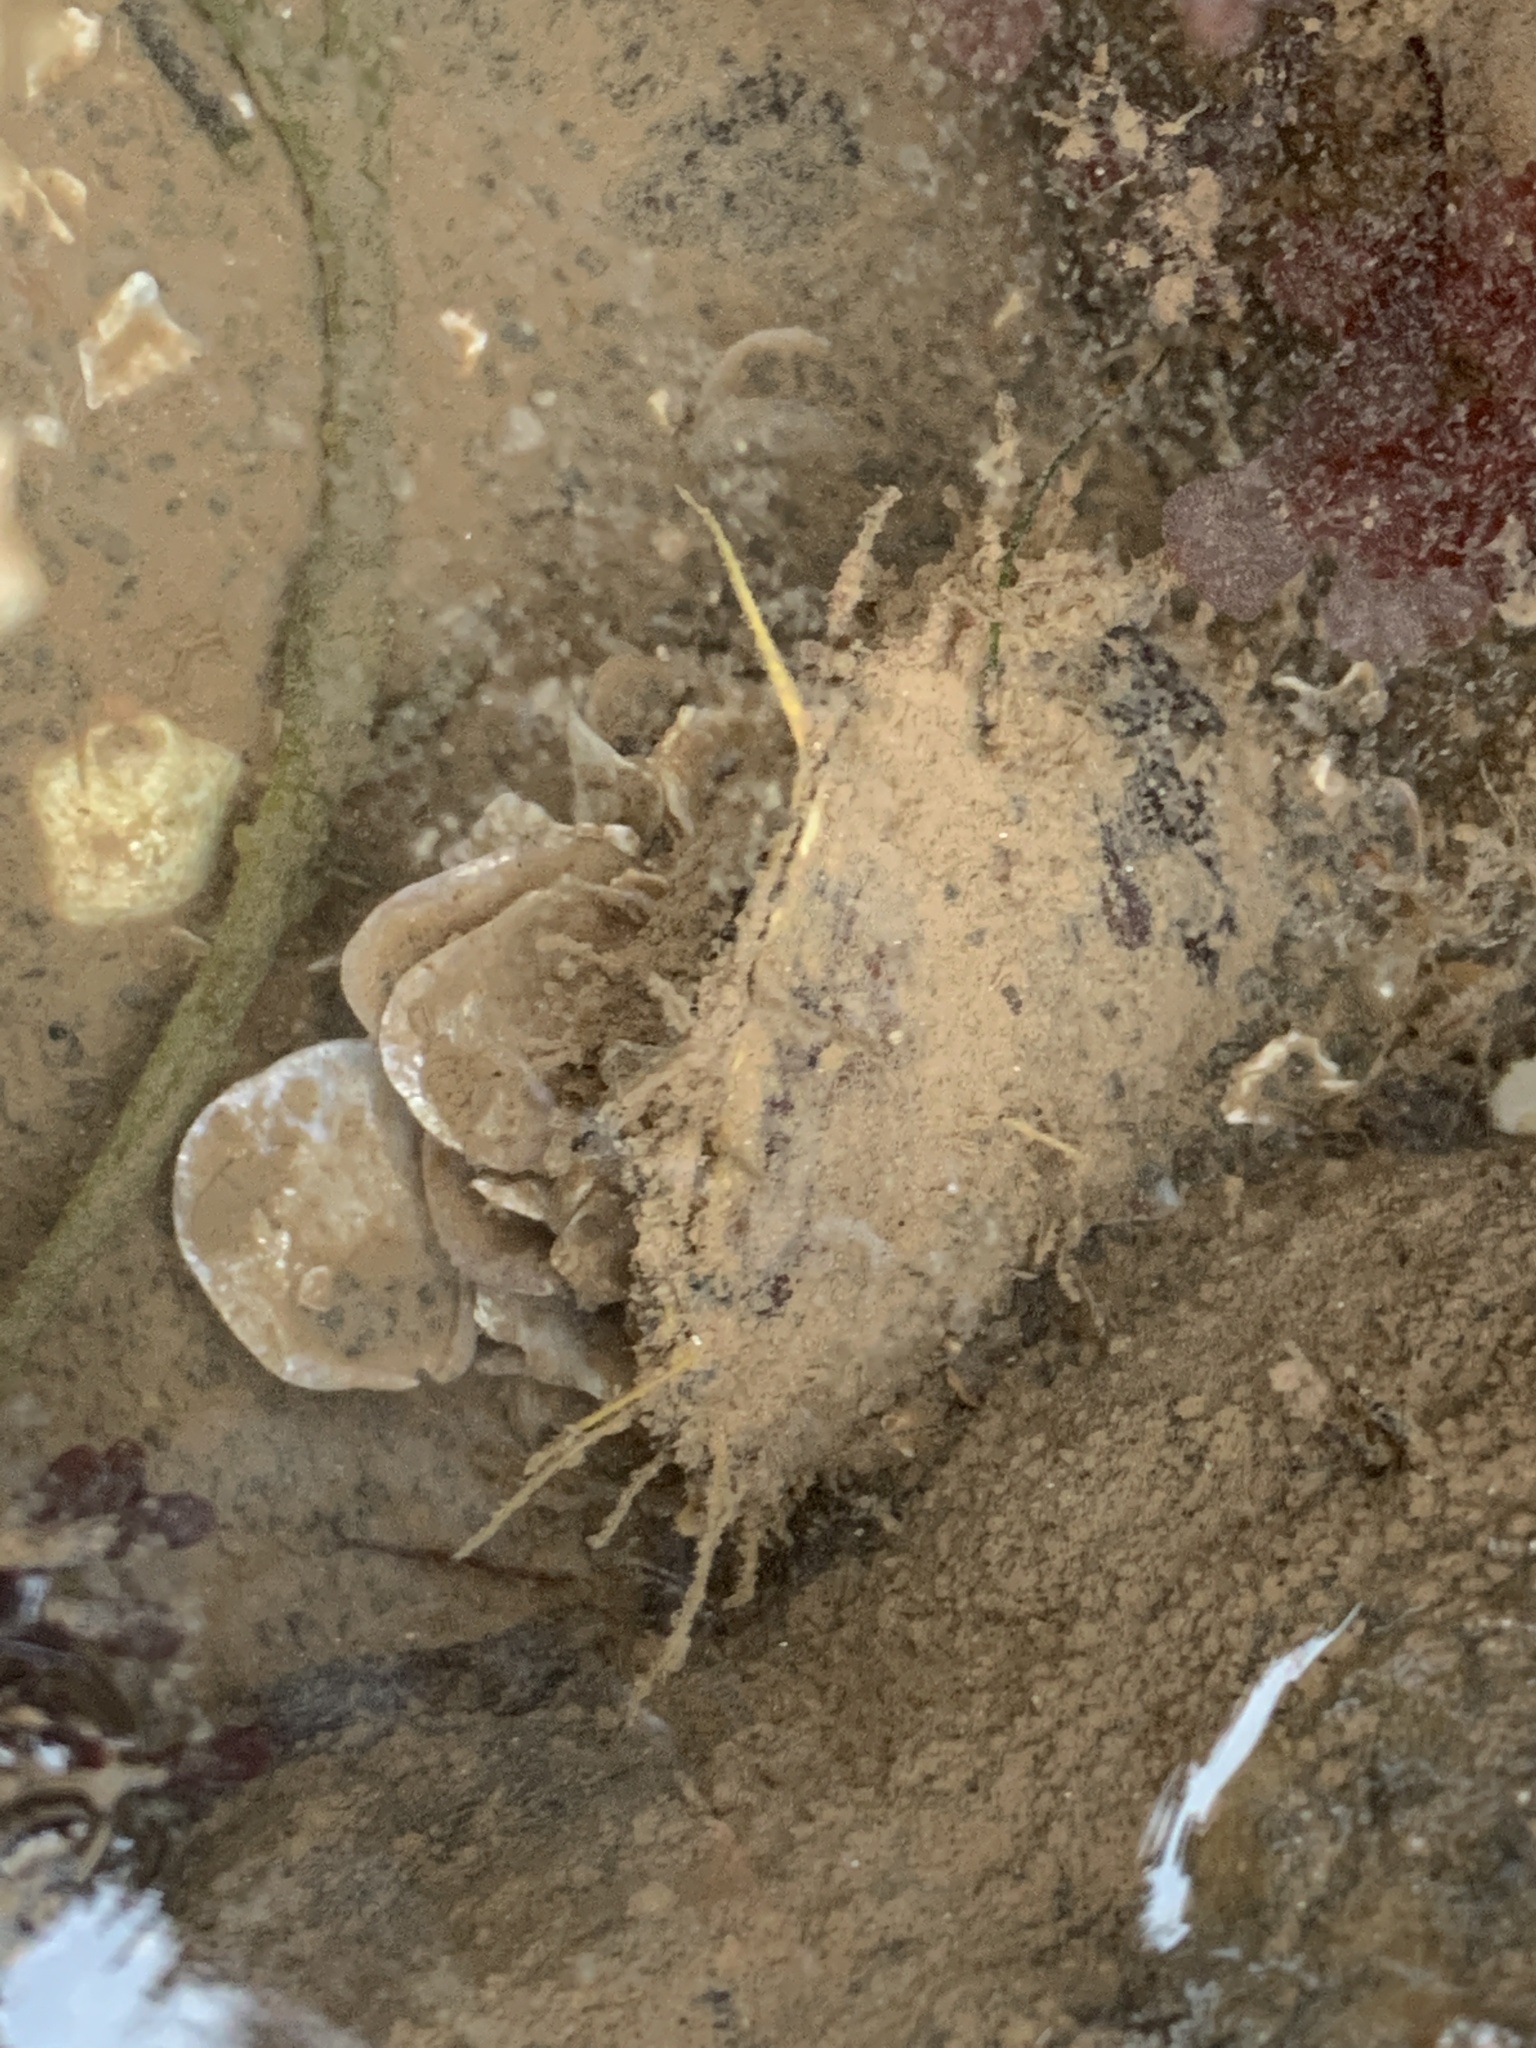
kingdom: Animalia
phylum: Mollusca
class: Bivalvia
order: Mytilida
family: Mytilidae
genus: Modiolus
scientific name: Modiolus modiolus
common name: Horse-mussel
